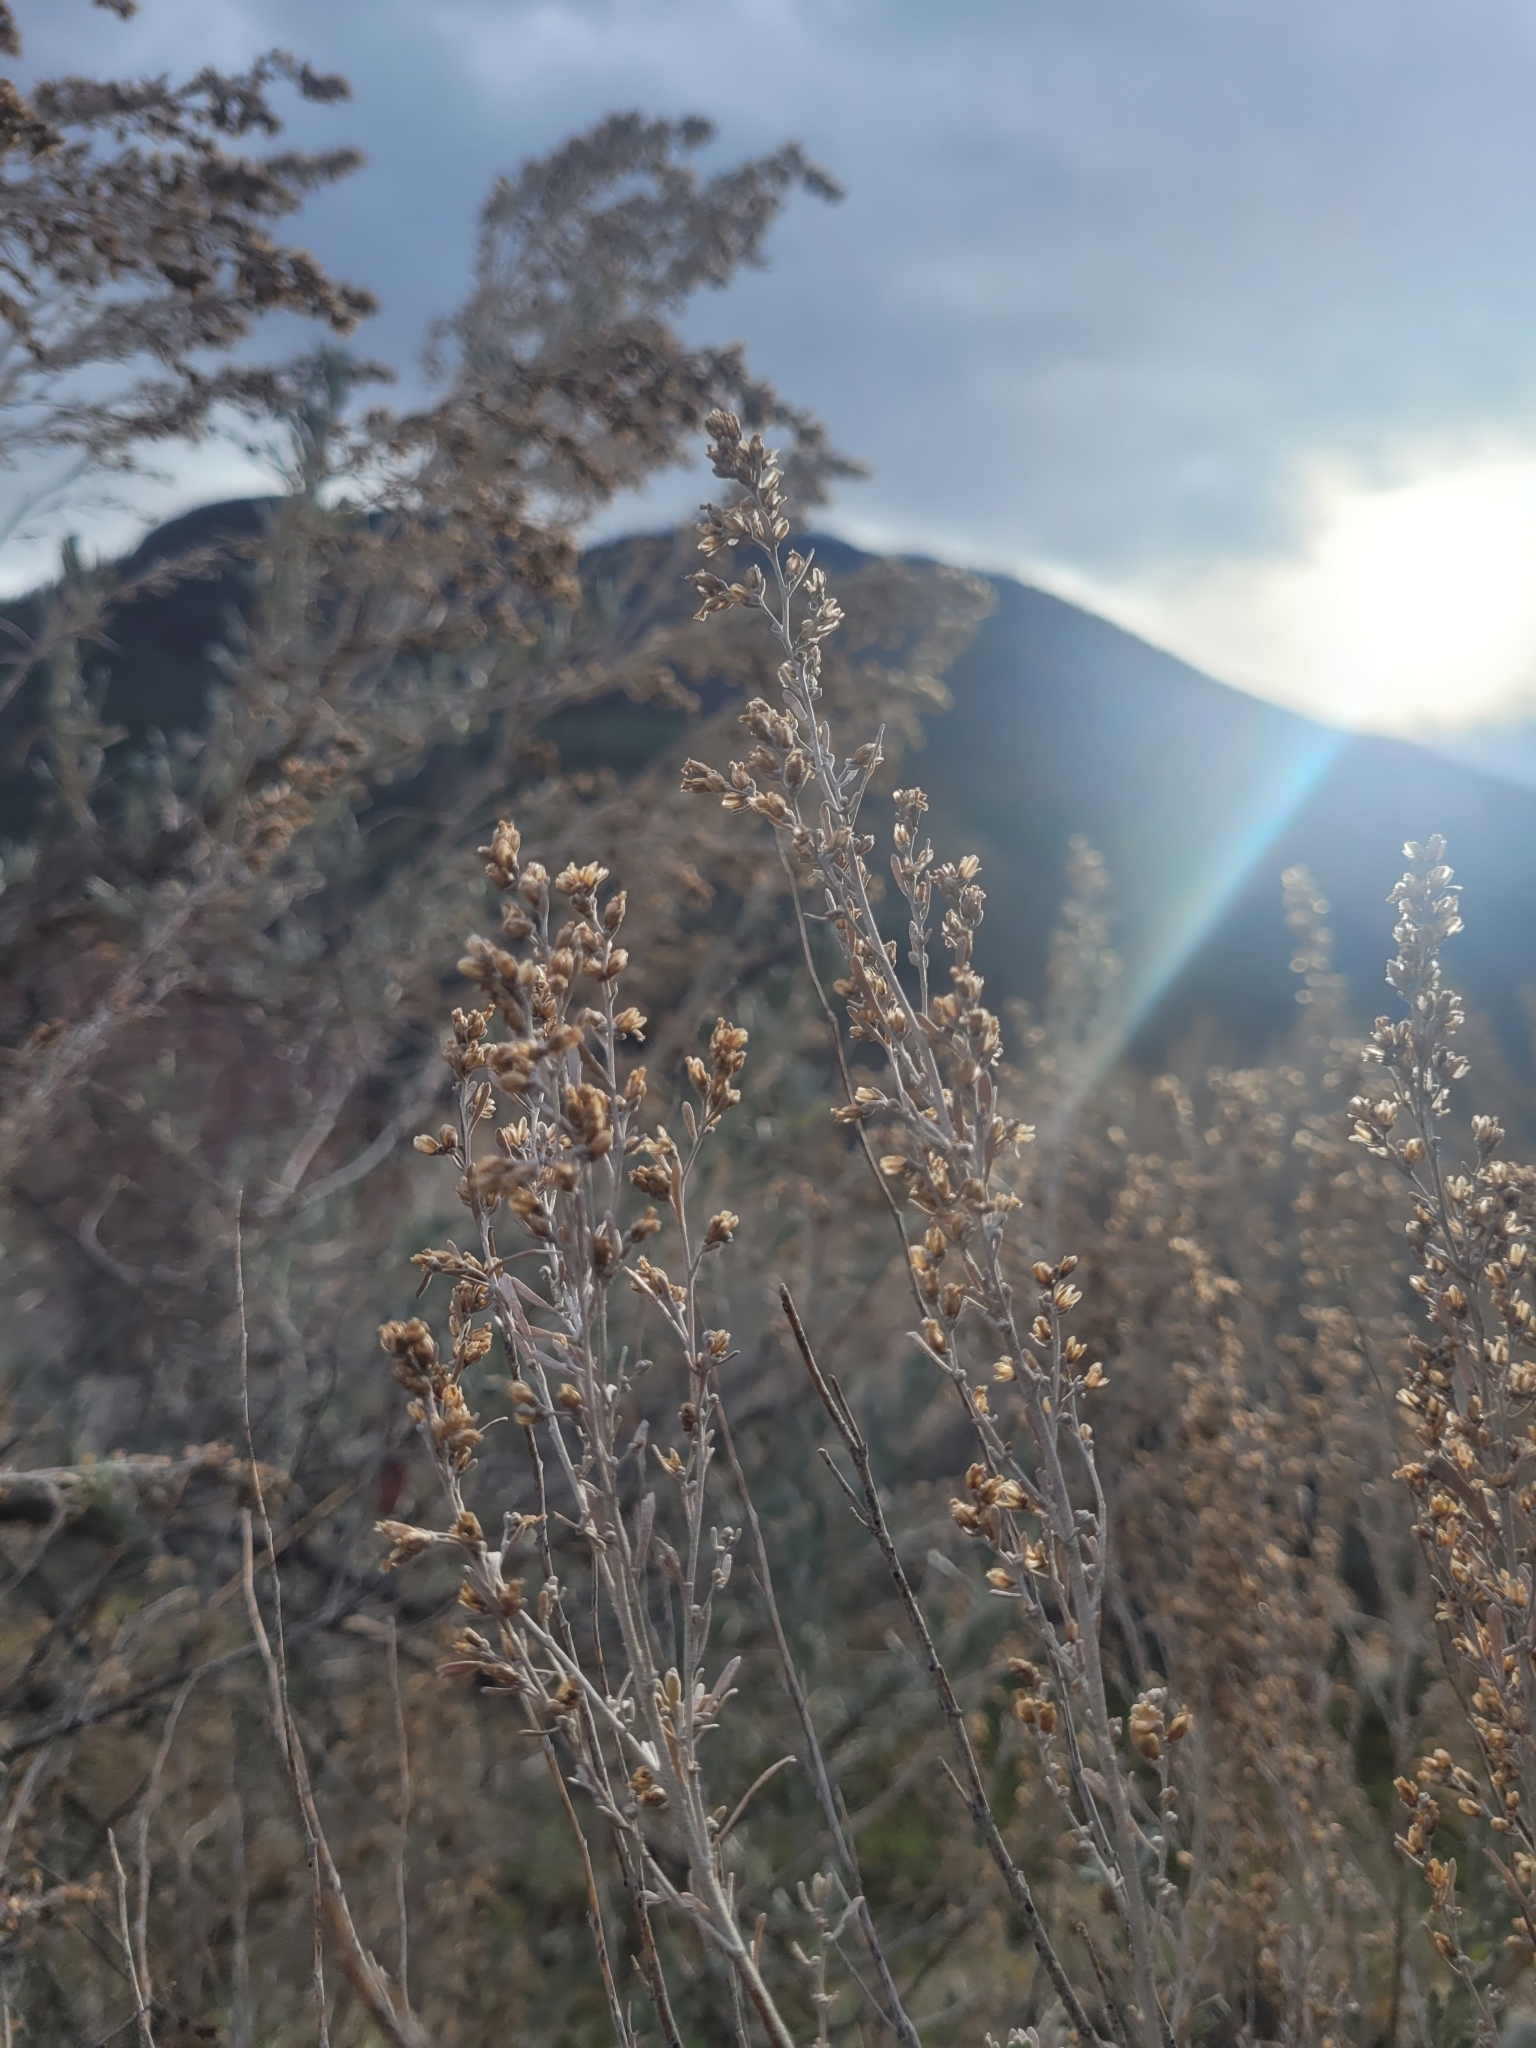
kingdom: Plantae
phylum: Tracheophyta
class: Magnoliopsida
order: Asterales
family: Asteraceae
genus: Artemisia
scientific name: Artemisia tridentata
